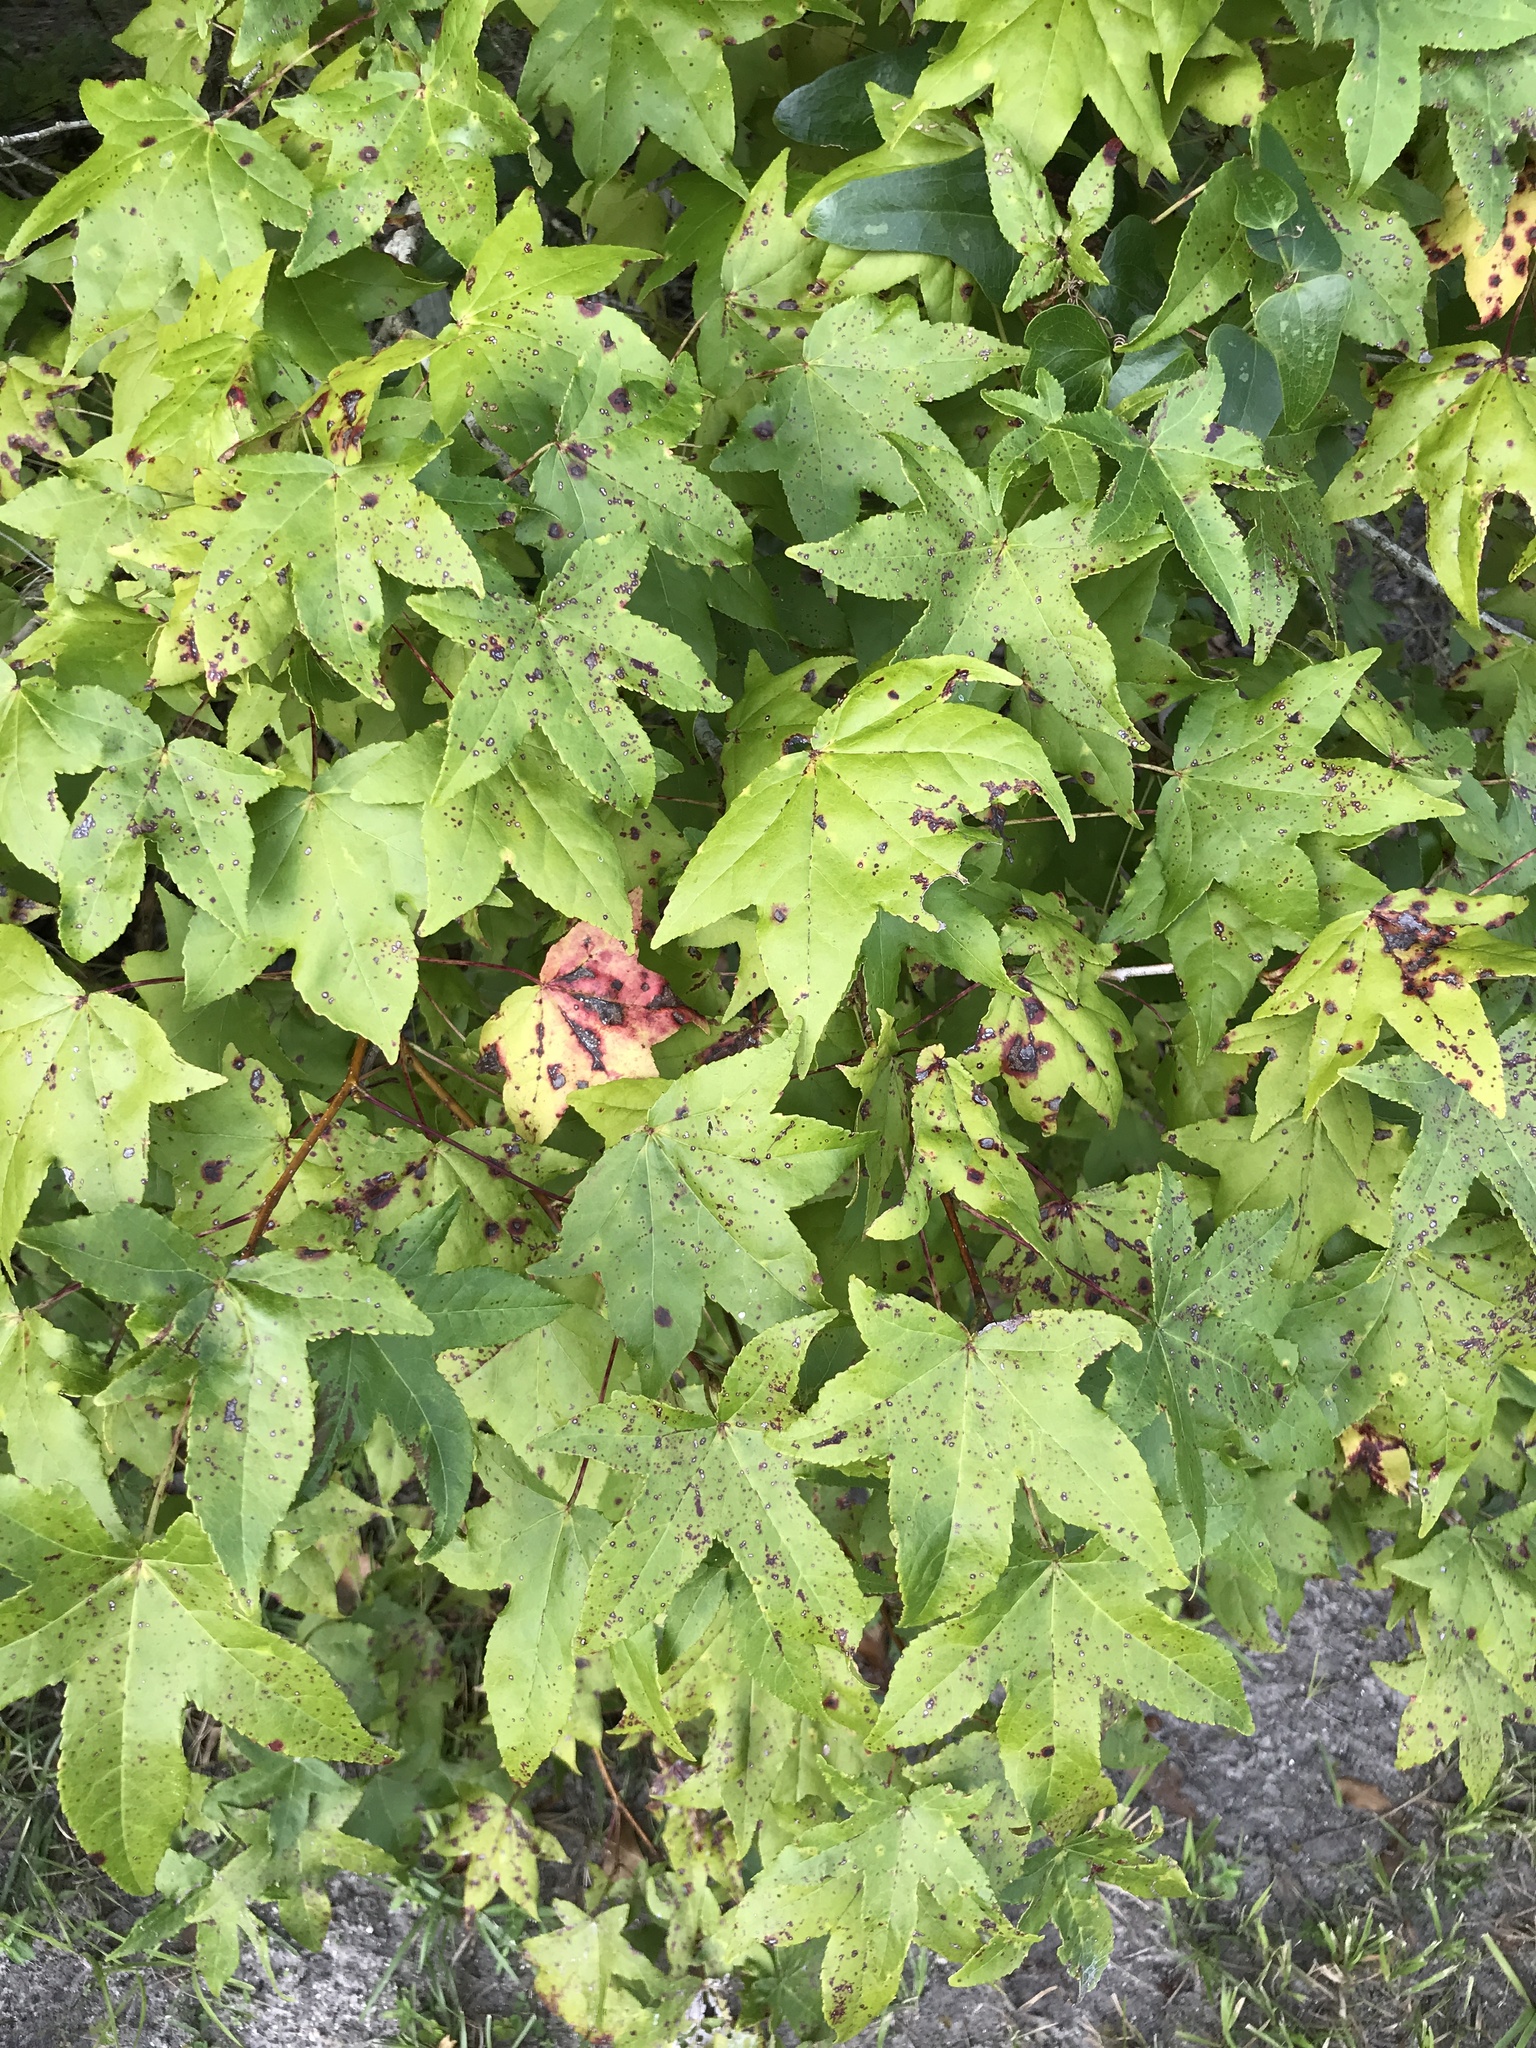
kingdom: Plantae
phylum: Tracheophyta
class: Magnoliopsida
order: Saxifragales
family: Altingiaceae
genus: Liquidambar
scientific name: Liquidambar styraciflua
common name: Sweet gum
